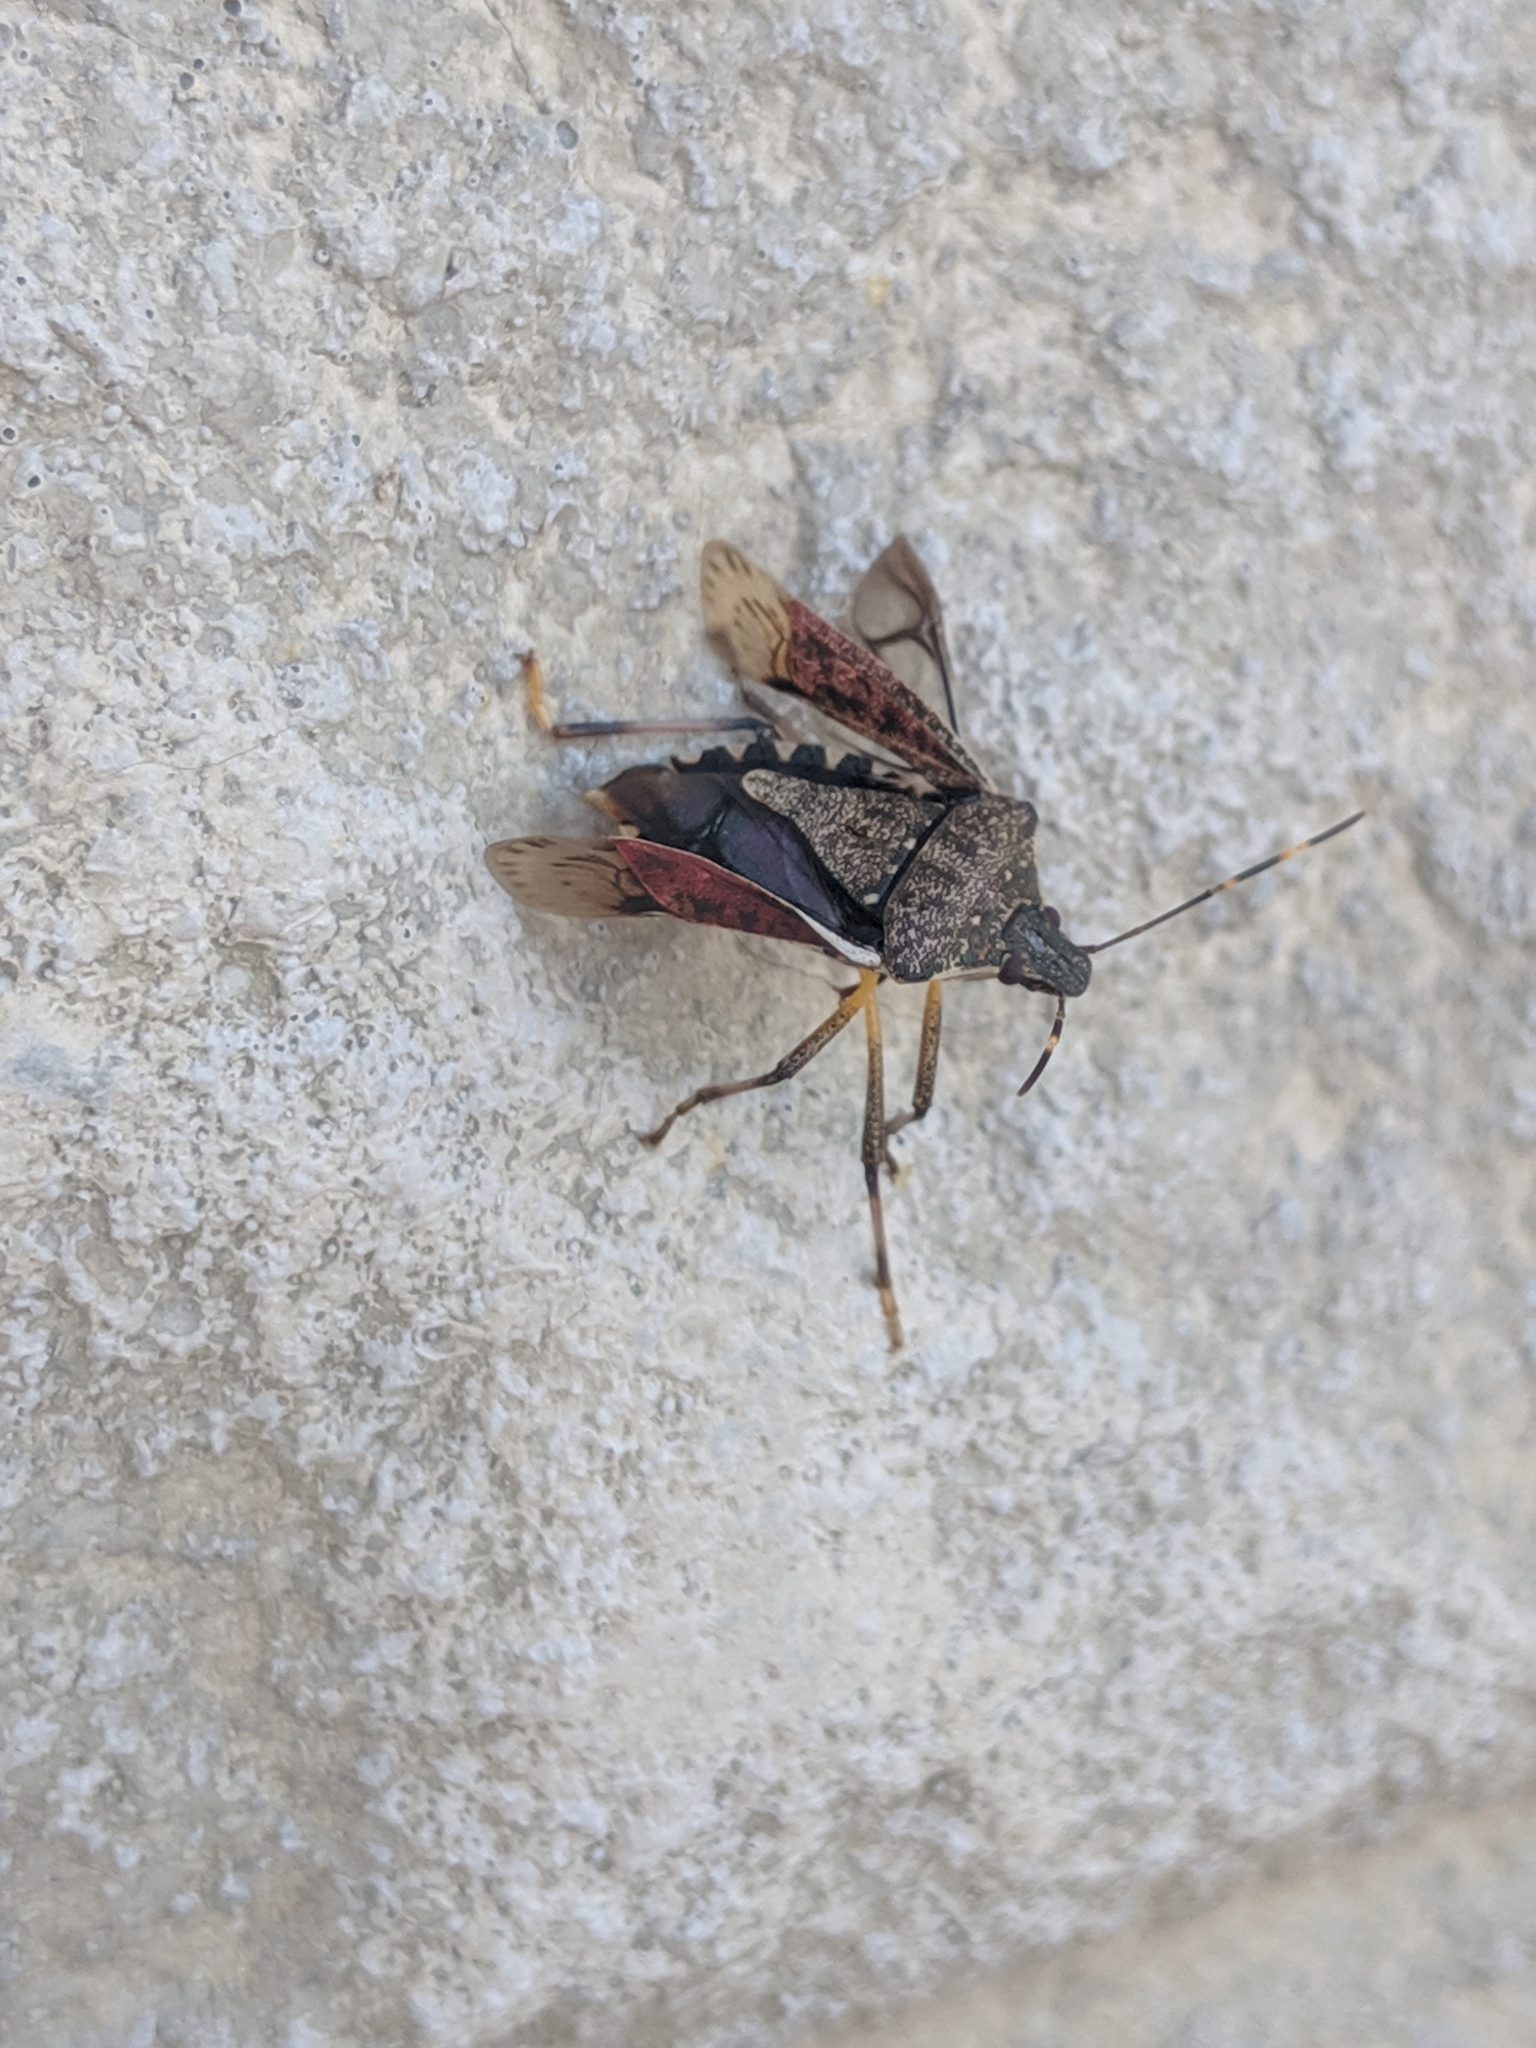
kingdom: Animalia
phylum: Arthropoda
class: Insecta
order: Hemiptera
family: Pentatomidae
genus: Halyomorpha
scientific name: Halyomorpha halys
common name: Brown marmorated stink bug
